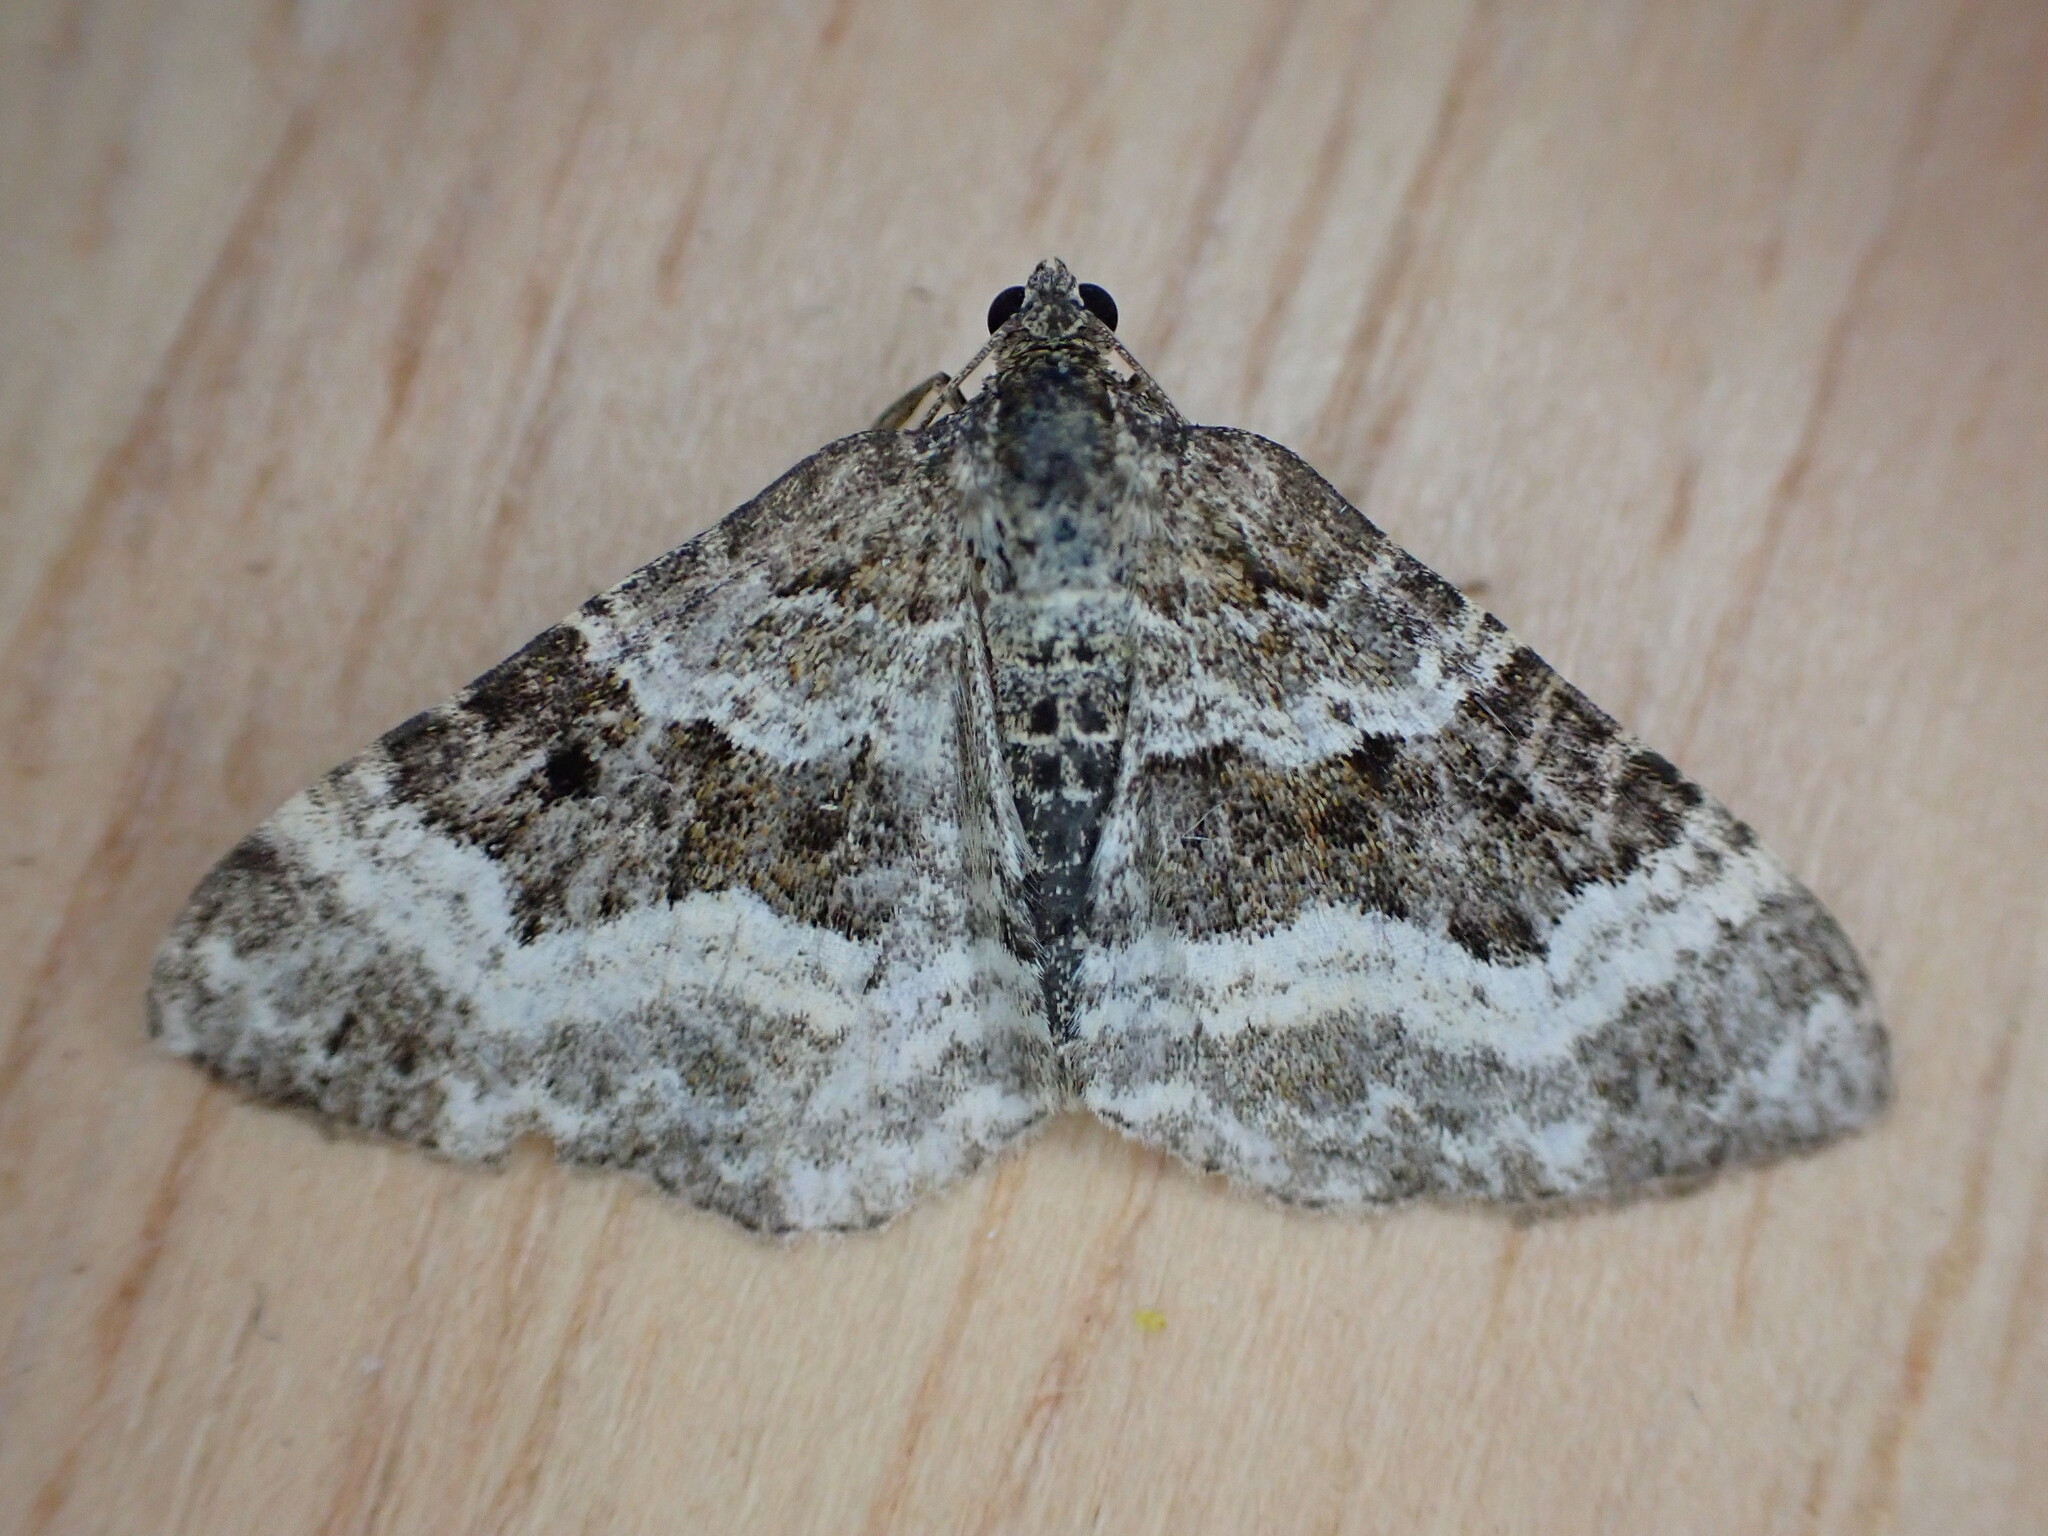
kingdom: Animalia
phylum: Arthropoda
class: Insecta
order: Lepidoptera
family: Geometridae
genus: Epirrhoe
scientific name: Epirrhoe alternata
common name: Common carpet
